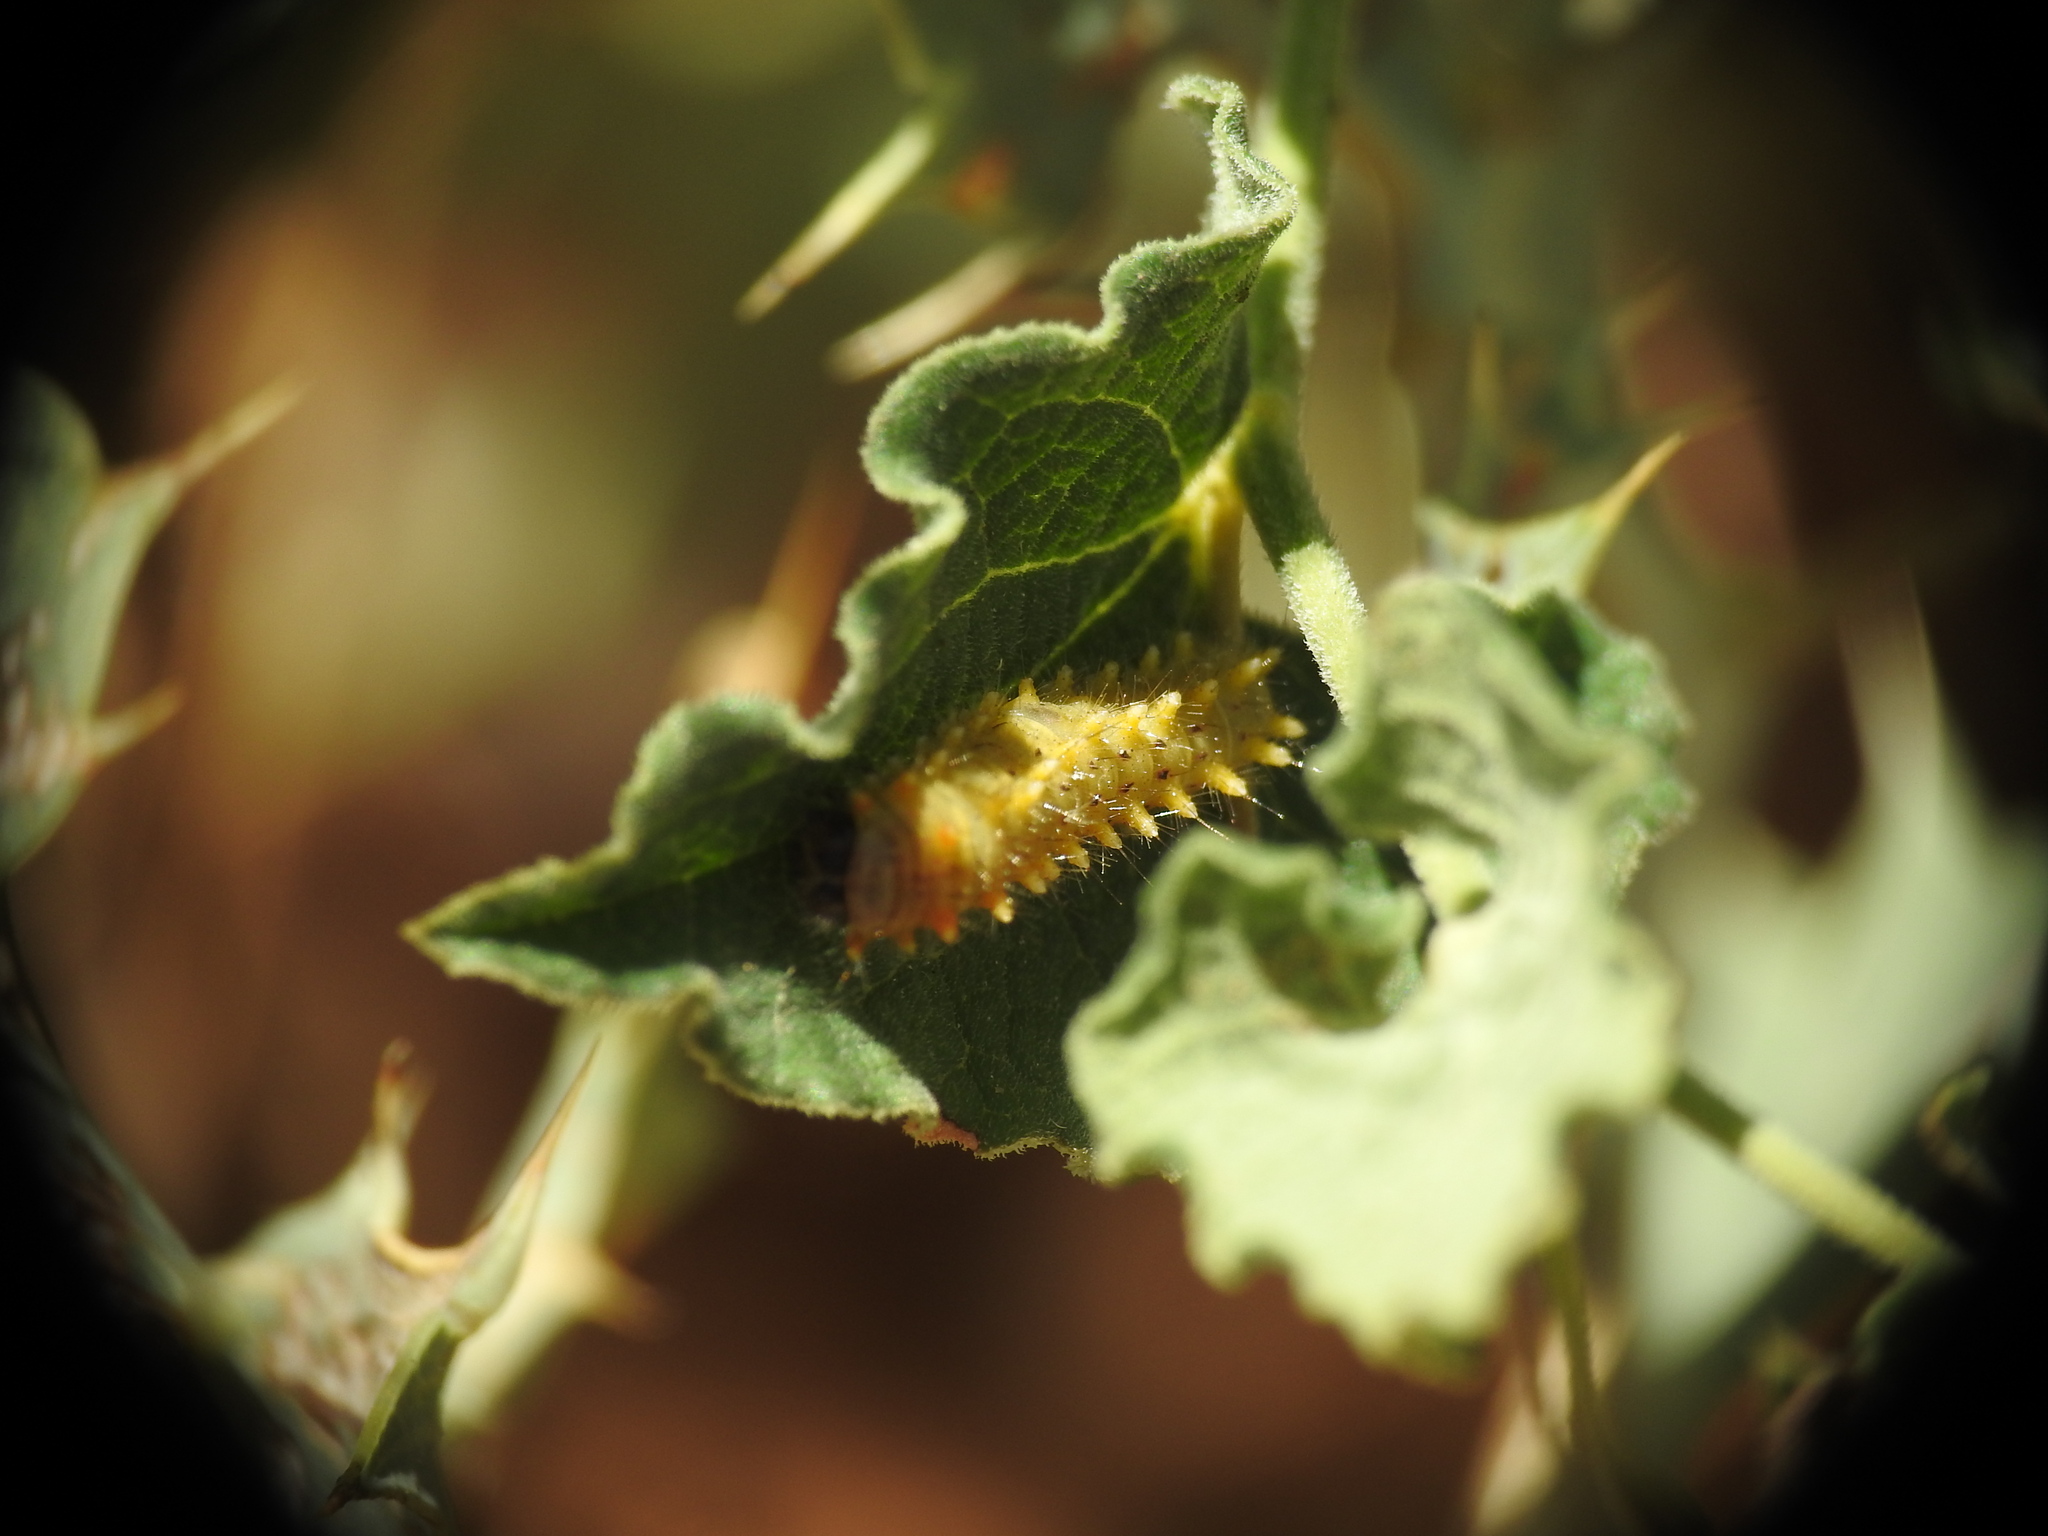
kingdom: Animalia
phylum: Arthropoda
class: Insecta
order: Lepidoptera
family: Papilionidae
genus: Zerynthia
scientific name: Zerynthia rumina
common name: Spanish festoon
